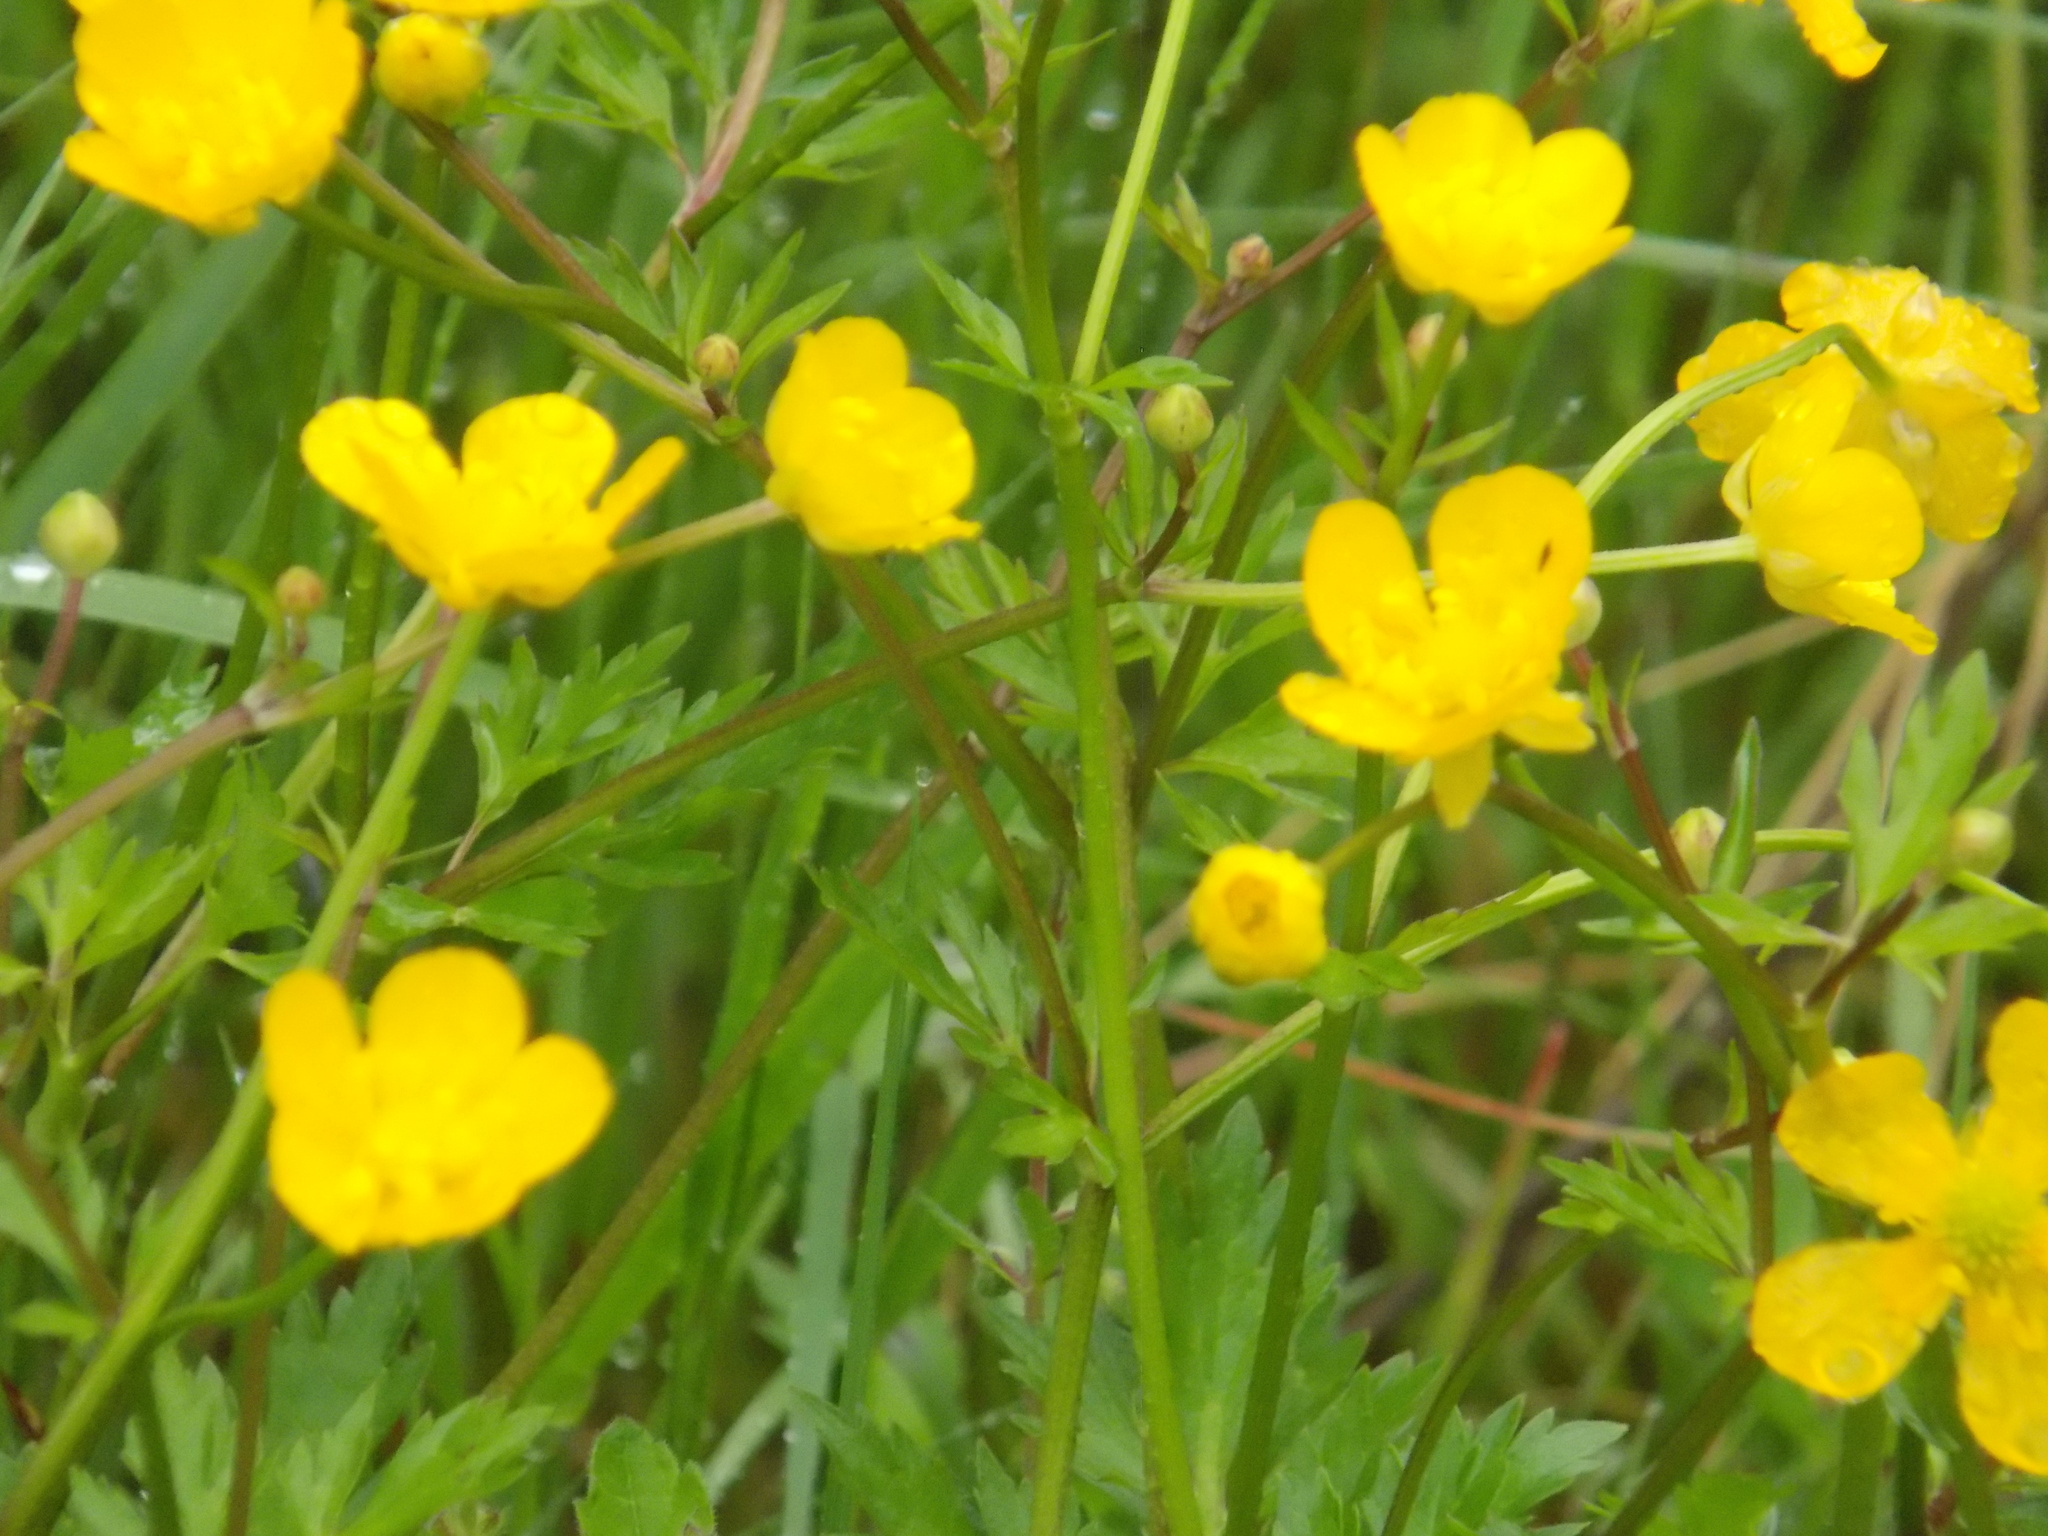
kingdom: Plantae
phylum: Tracheophyta
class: Magnoliopsida
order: Ranunculales
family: Ranunculaceae
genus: Ranunculus
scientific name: Ranunculus repens
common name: Creeping buttercup
